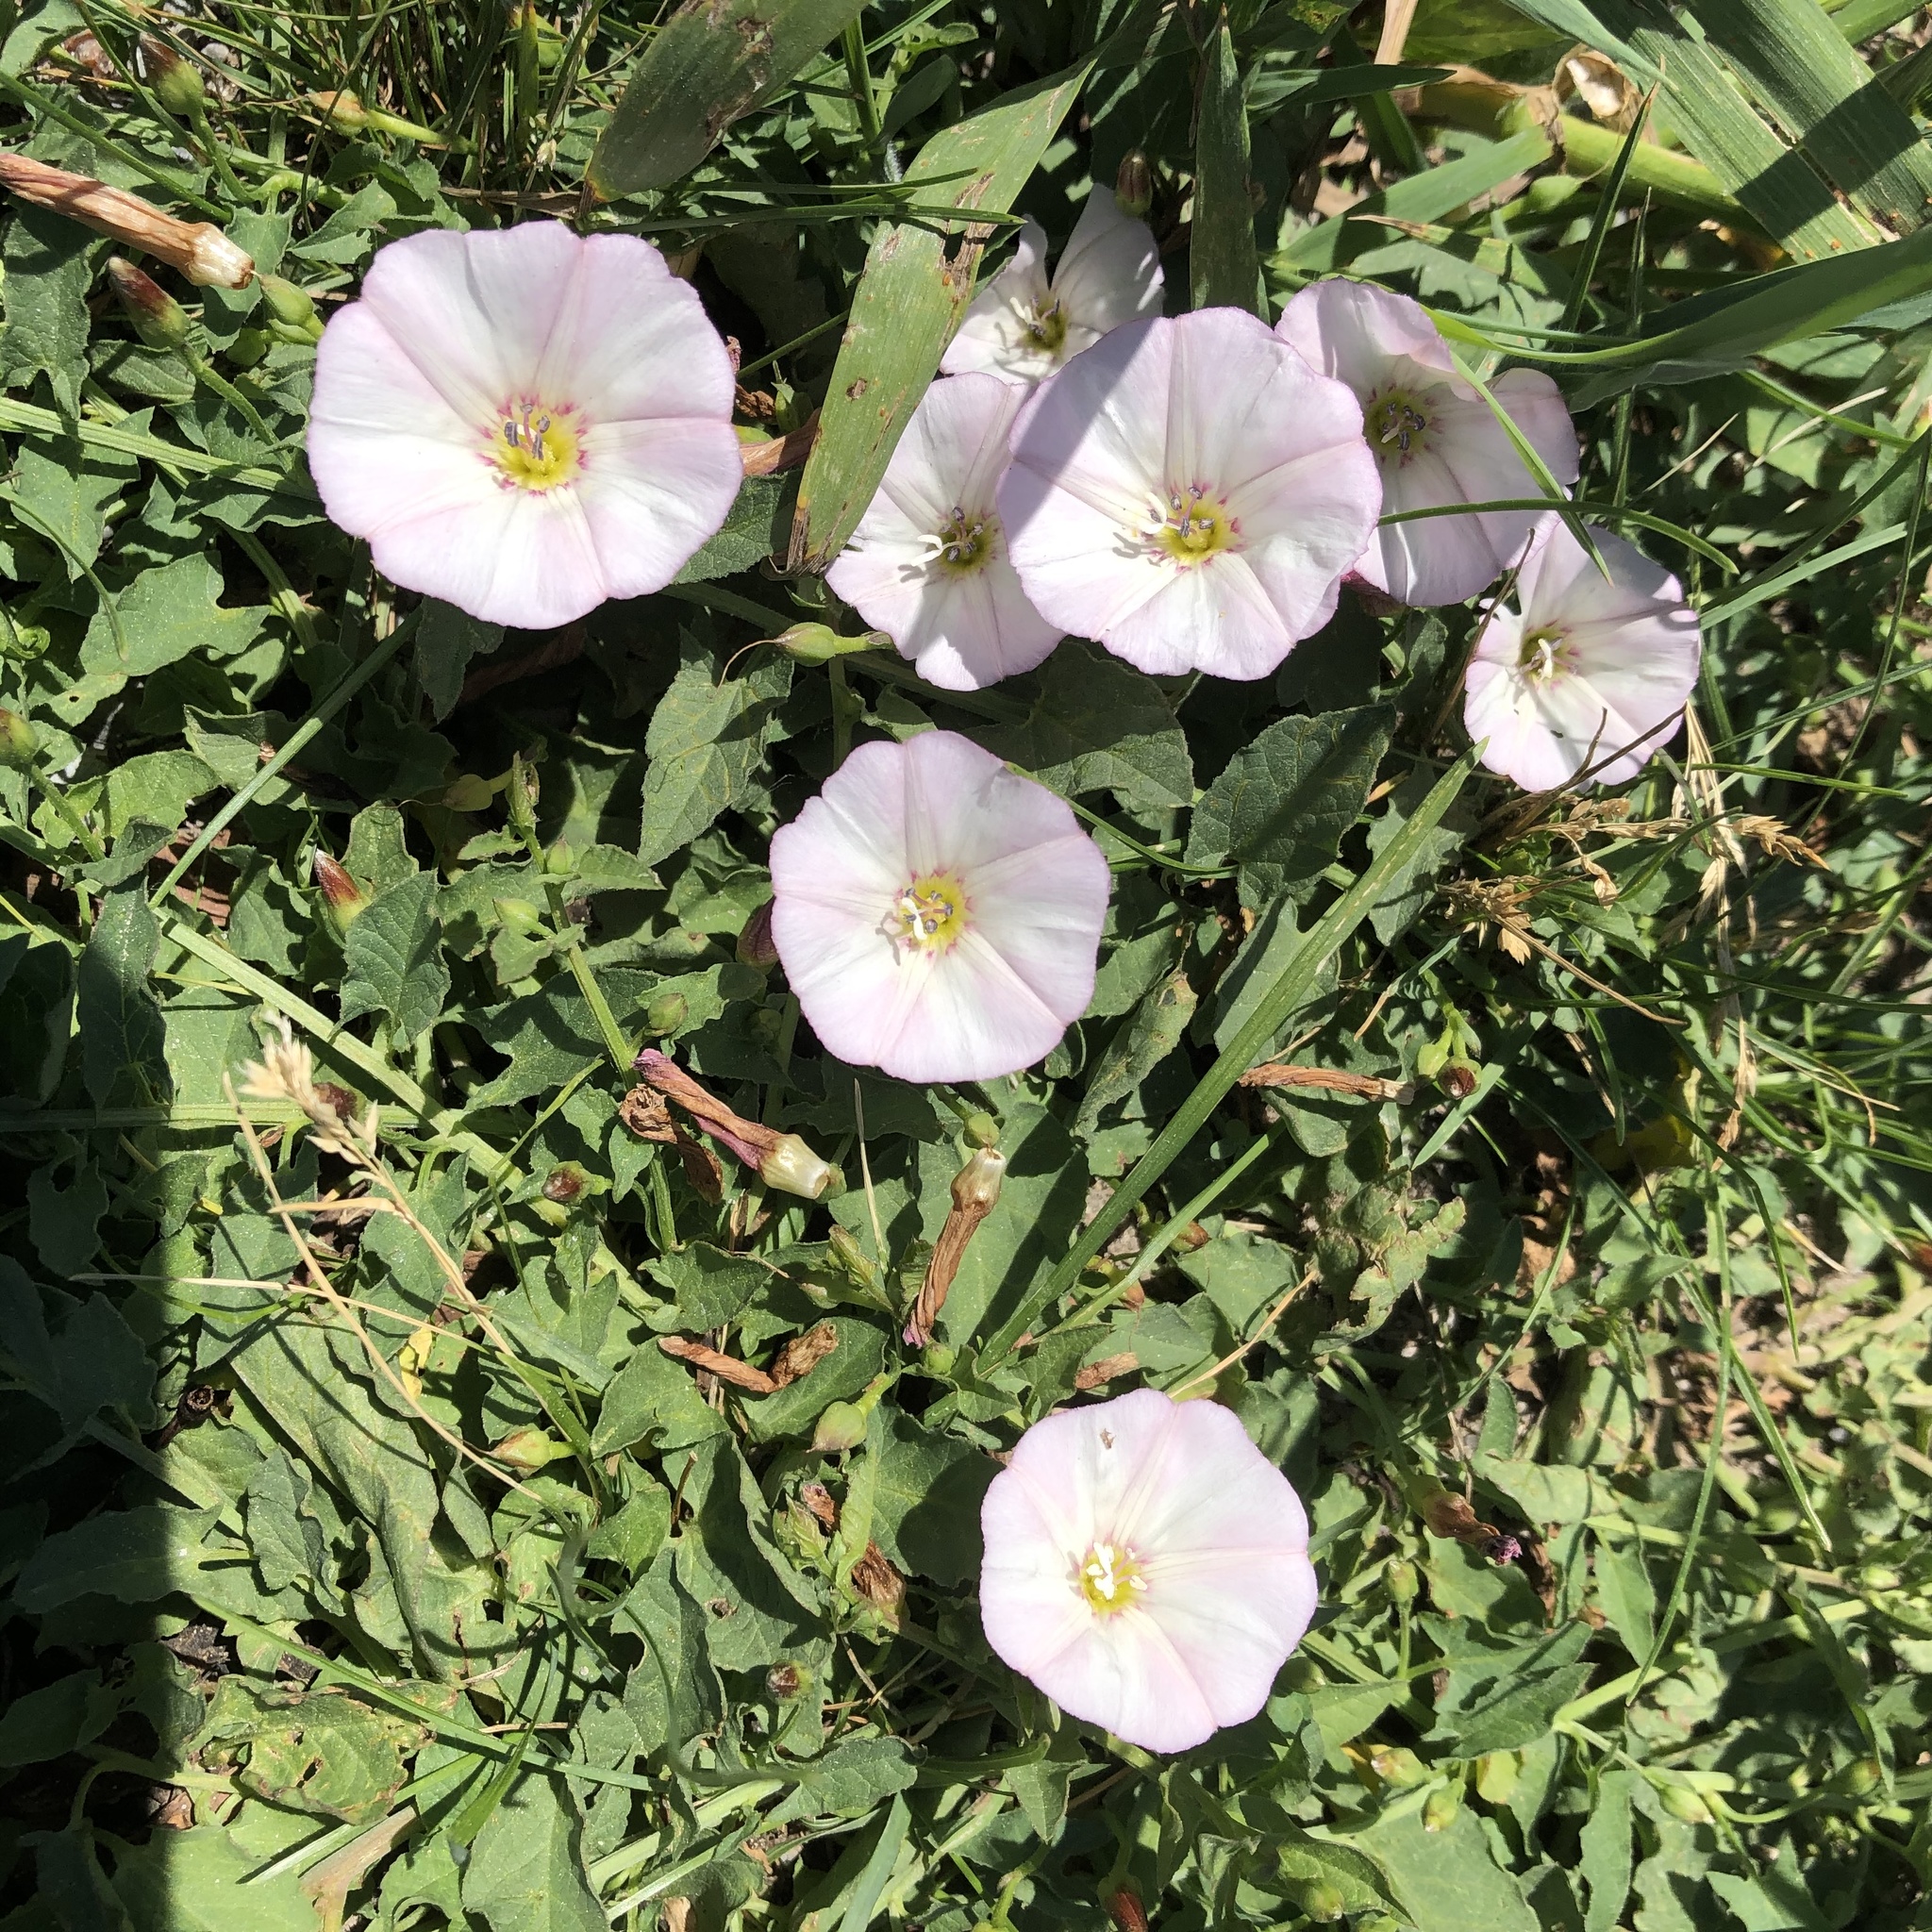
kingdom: Plantae
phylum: Tracheophyta
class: Magnoliopsida
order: Solanales
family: Convolvulaceae
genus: Convolvulus
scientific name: Convolvulus arvensis
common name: Field bindweed
